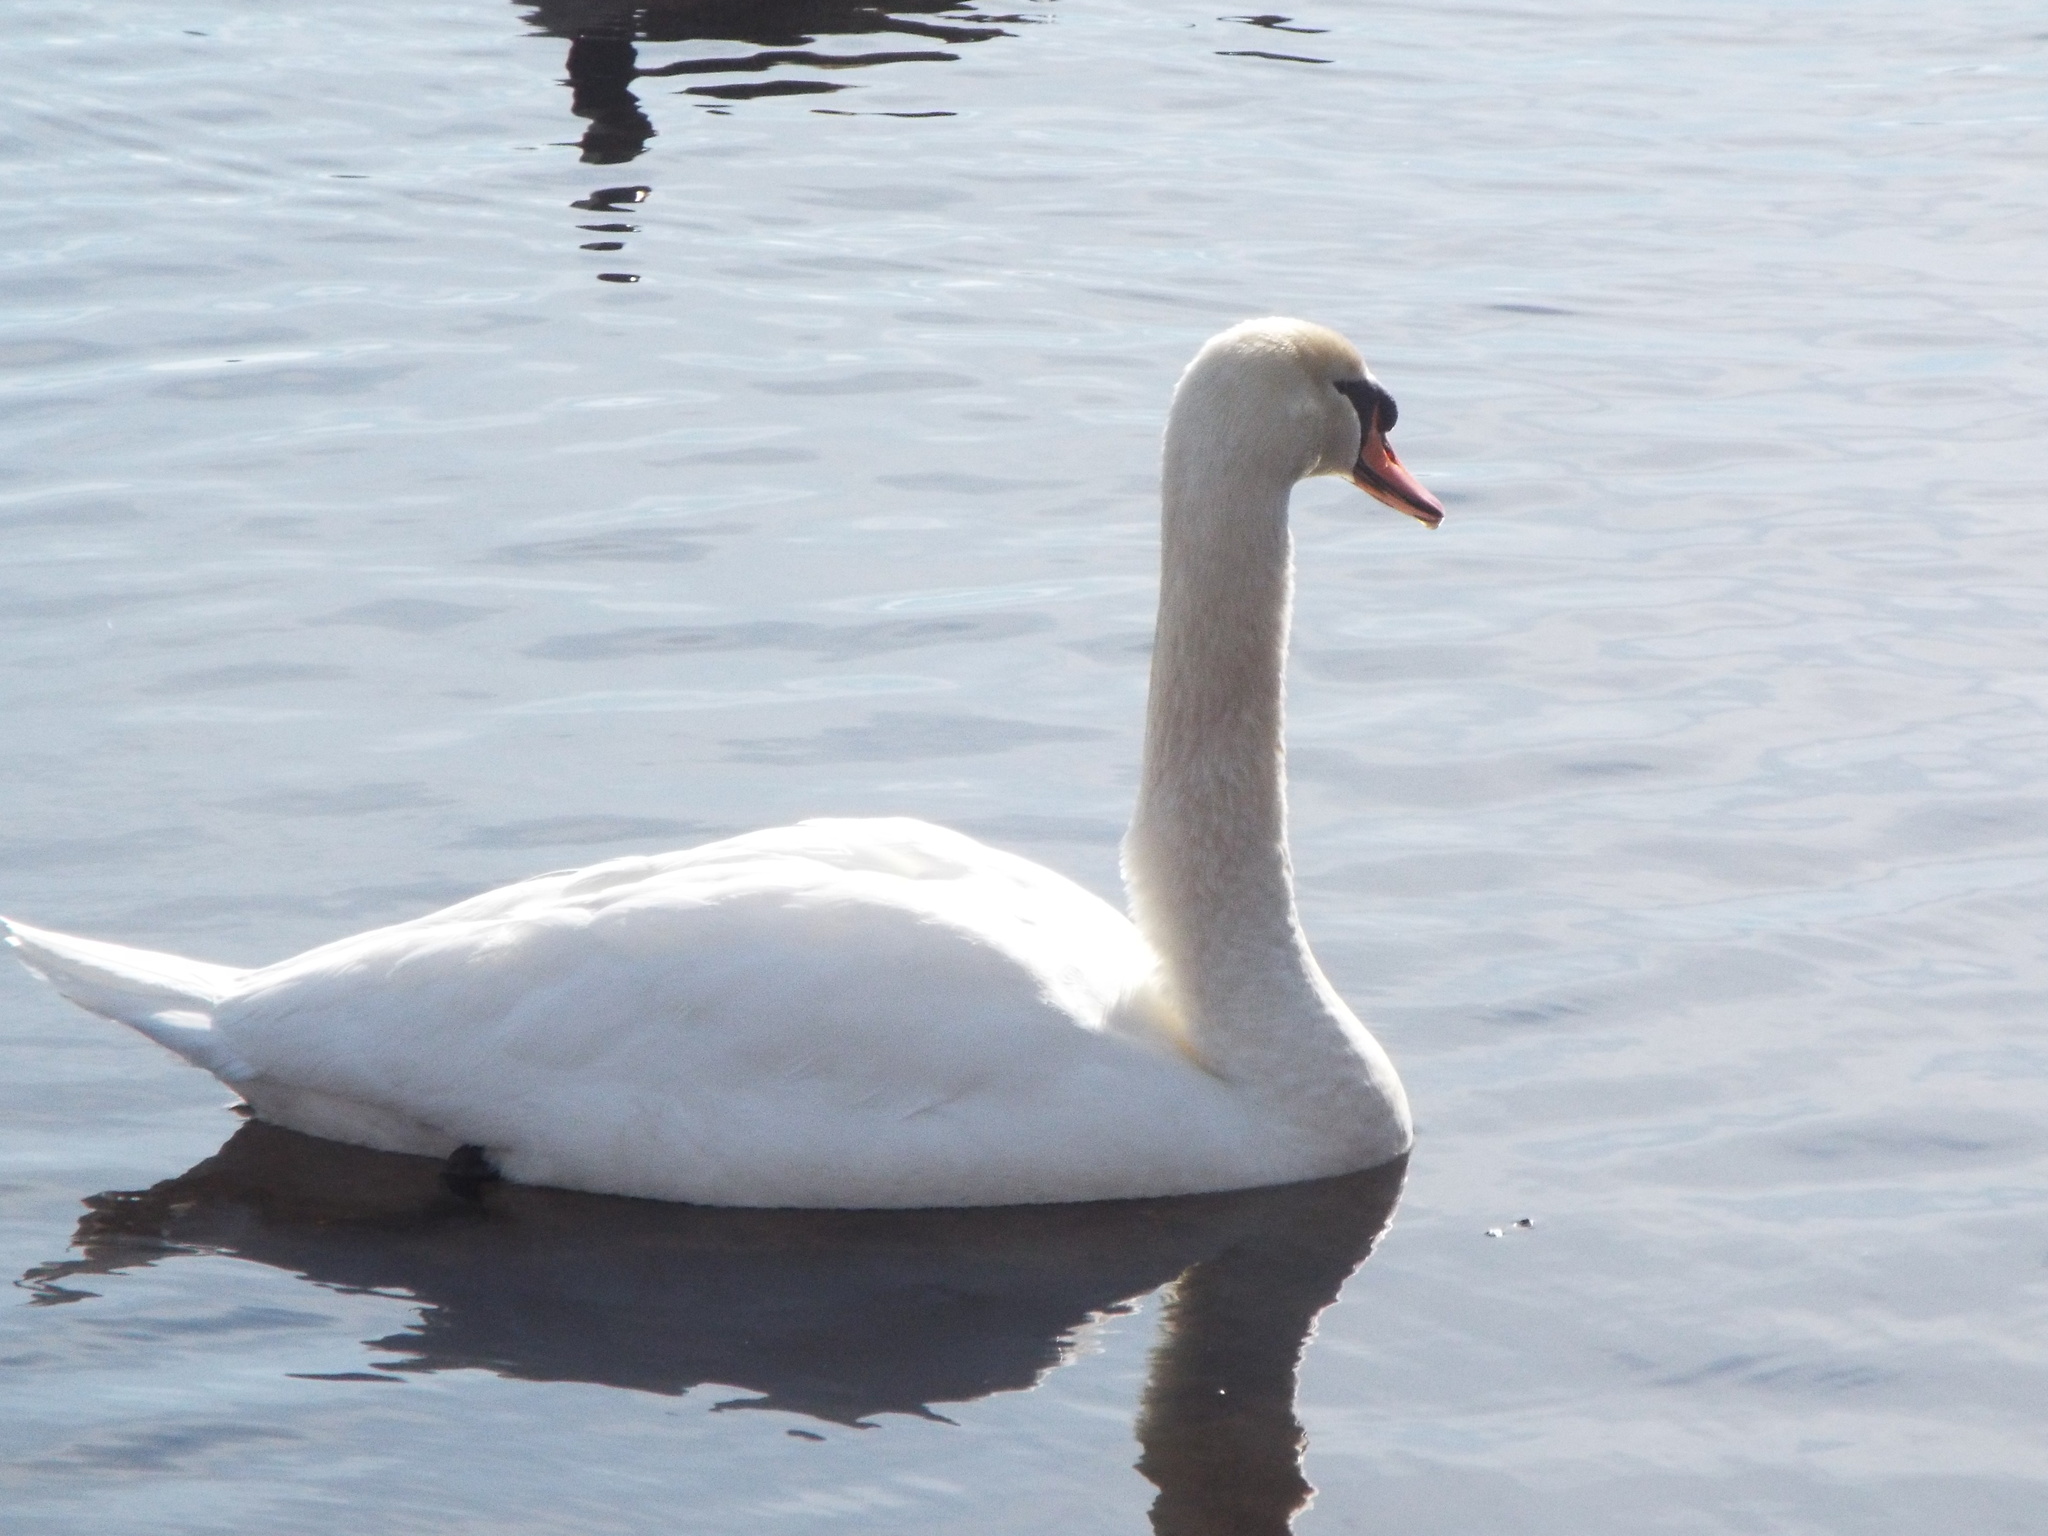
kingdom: Animalia
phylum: Chordata
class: Aves
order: Anseriformes
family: Anatidae
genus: Cygnus
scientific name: Cygnus olor
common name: Mute swan
